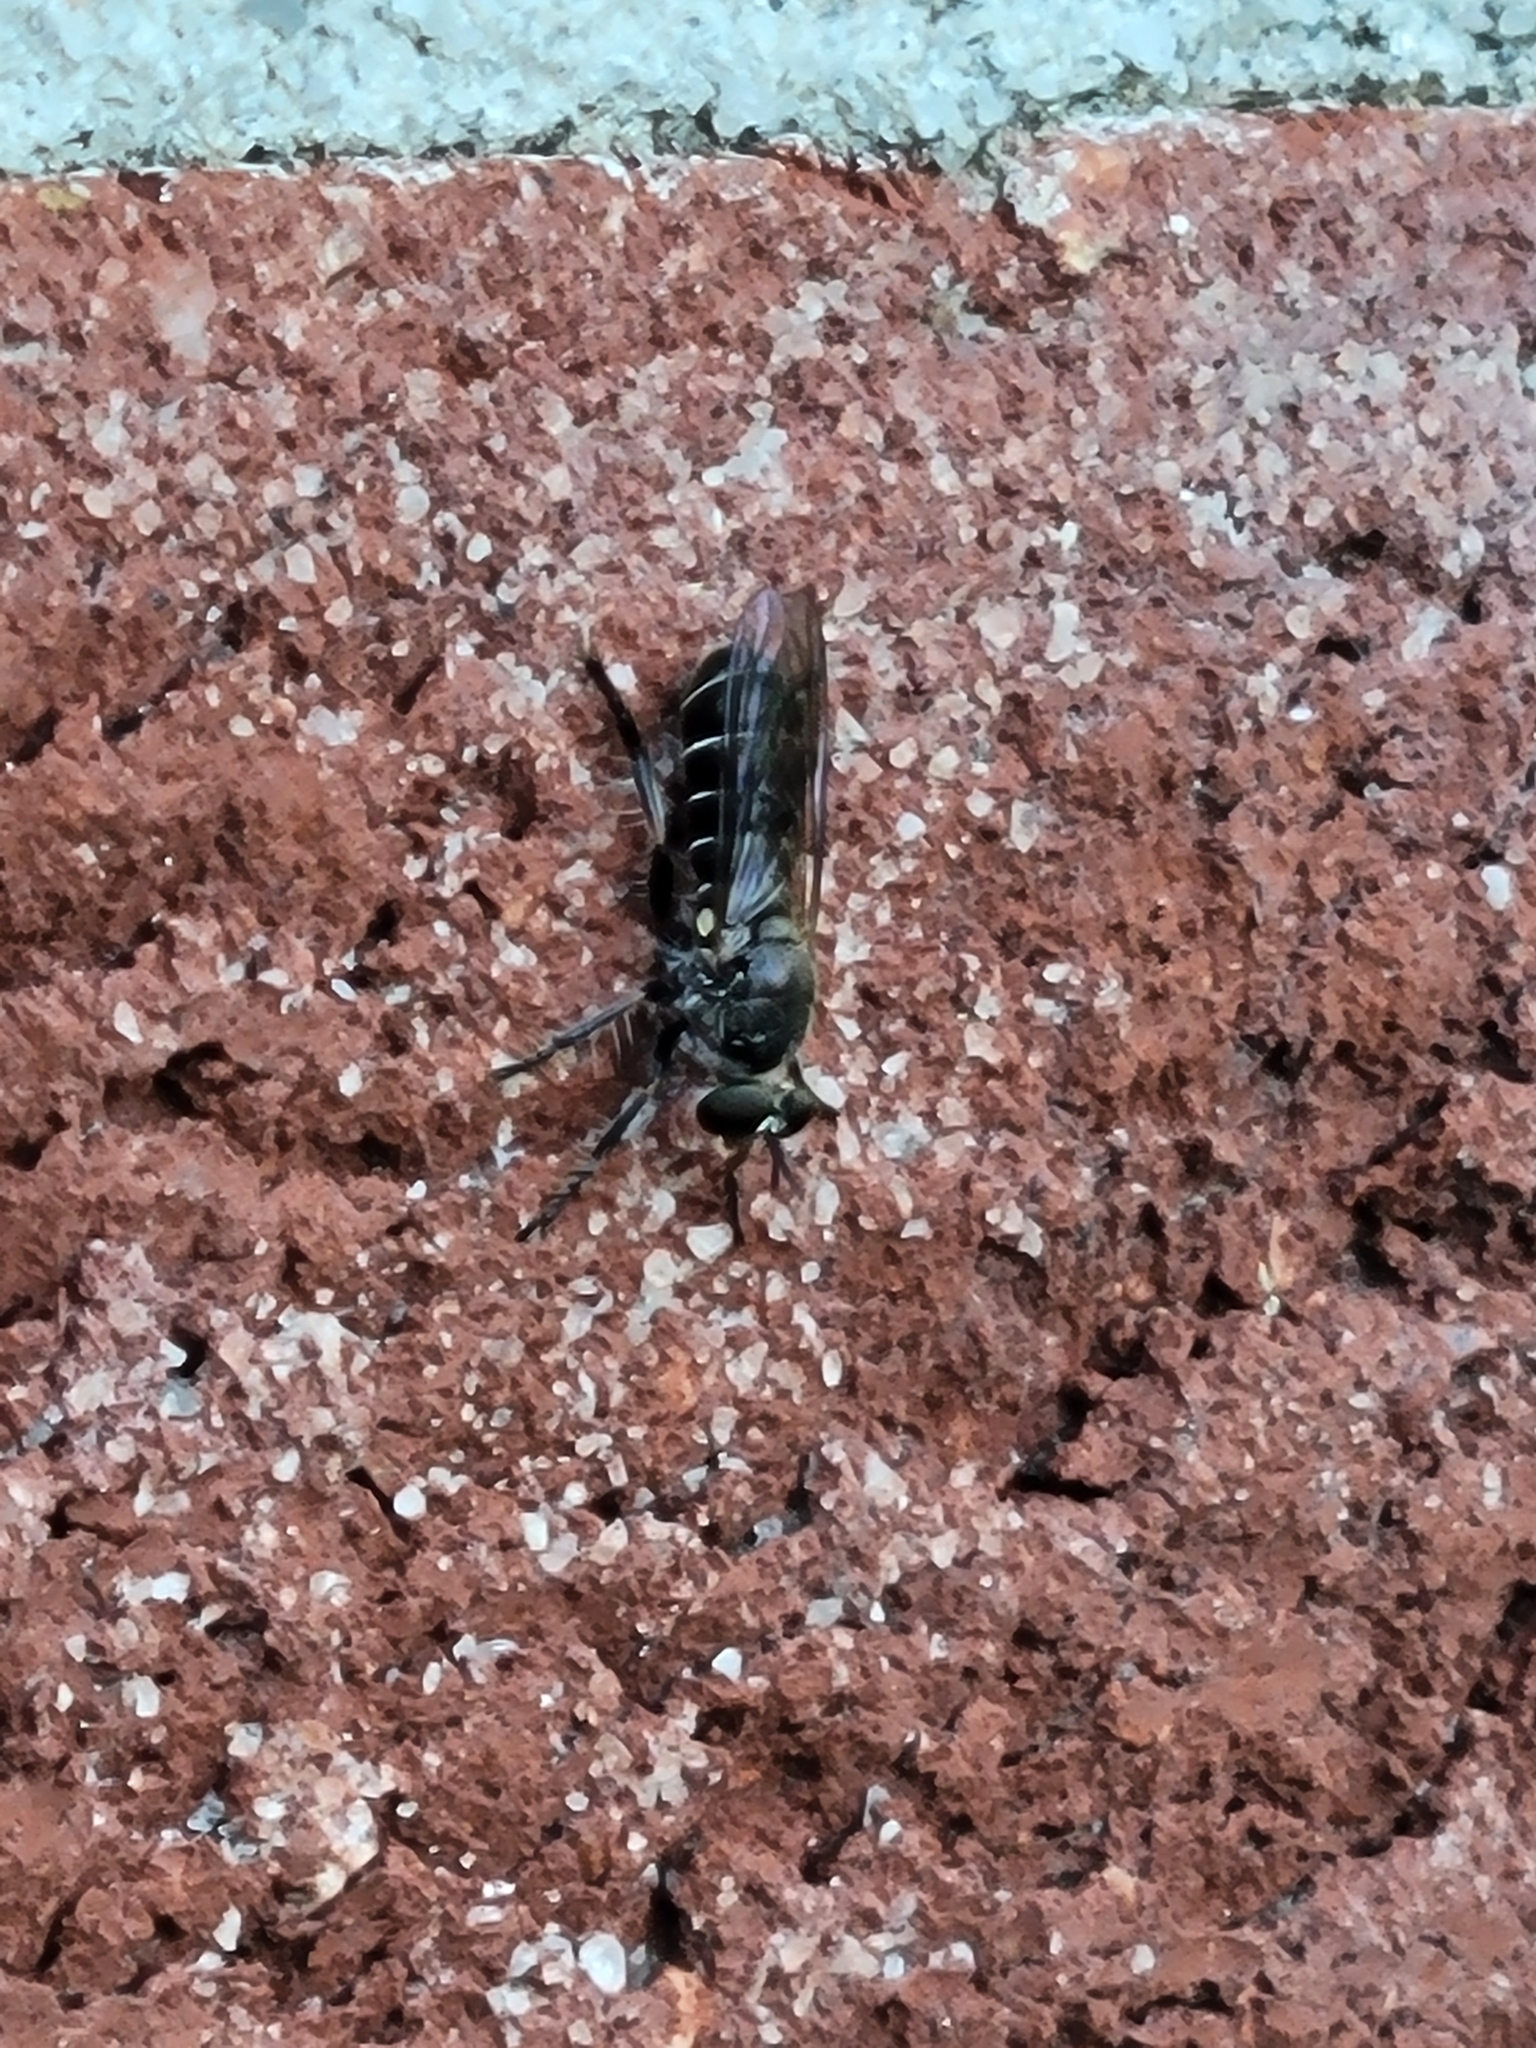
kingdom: Animalia
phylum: Arthropoda
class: Insecta
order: Diptera
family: Asilidae
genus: Atomosia
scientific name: Atomosia puella
